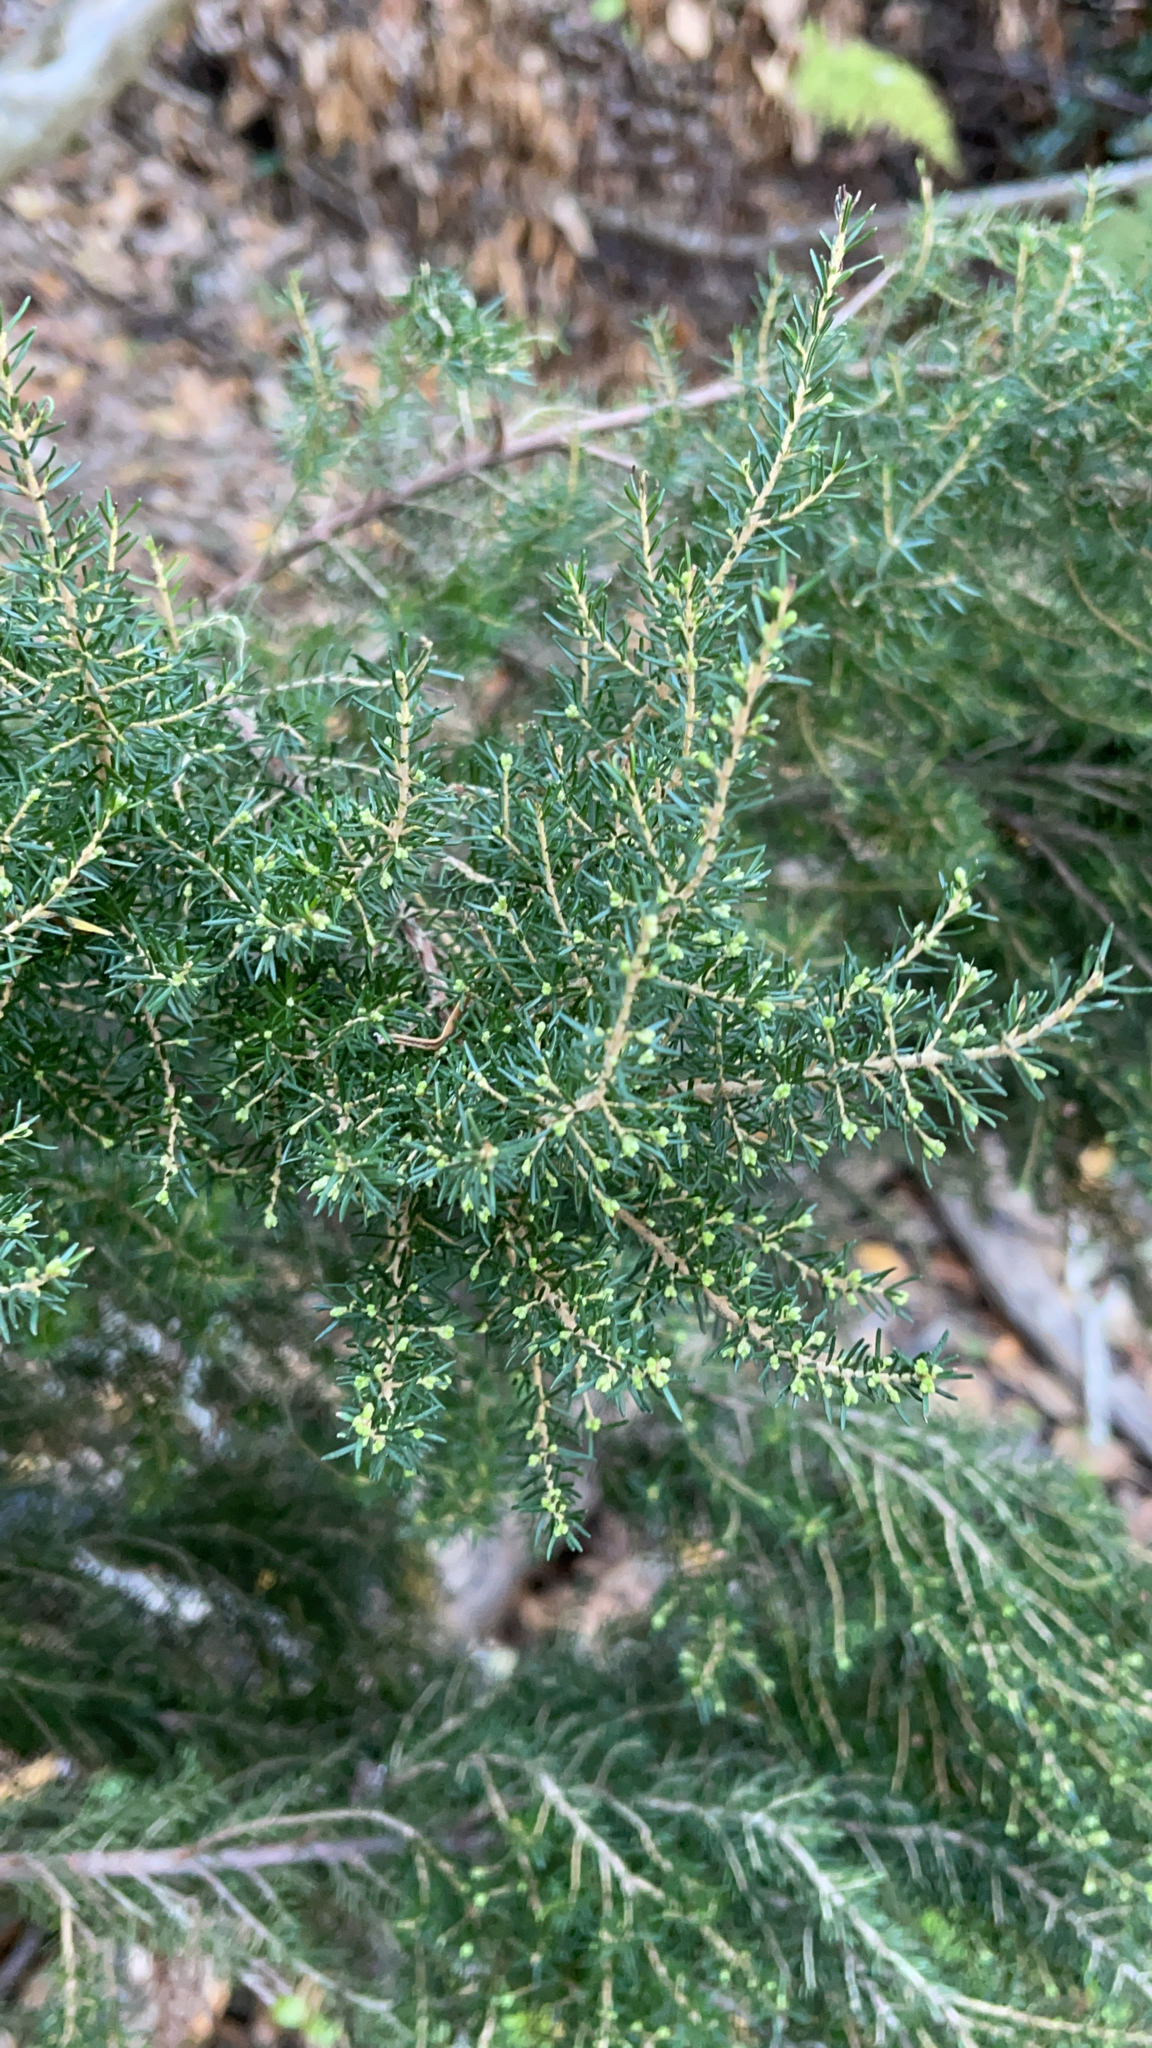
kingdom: Plantae
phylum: Tracheophyta
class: Magnoliopsida
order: Ericales
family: Ericaceae
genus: Erica
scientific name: Erica canariensis
